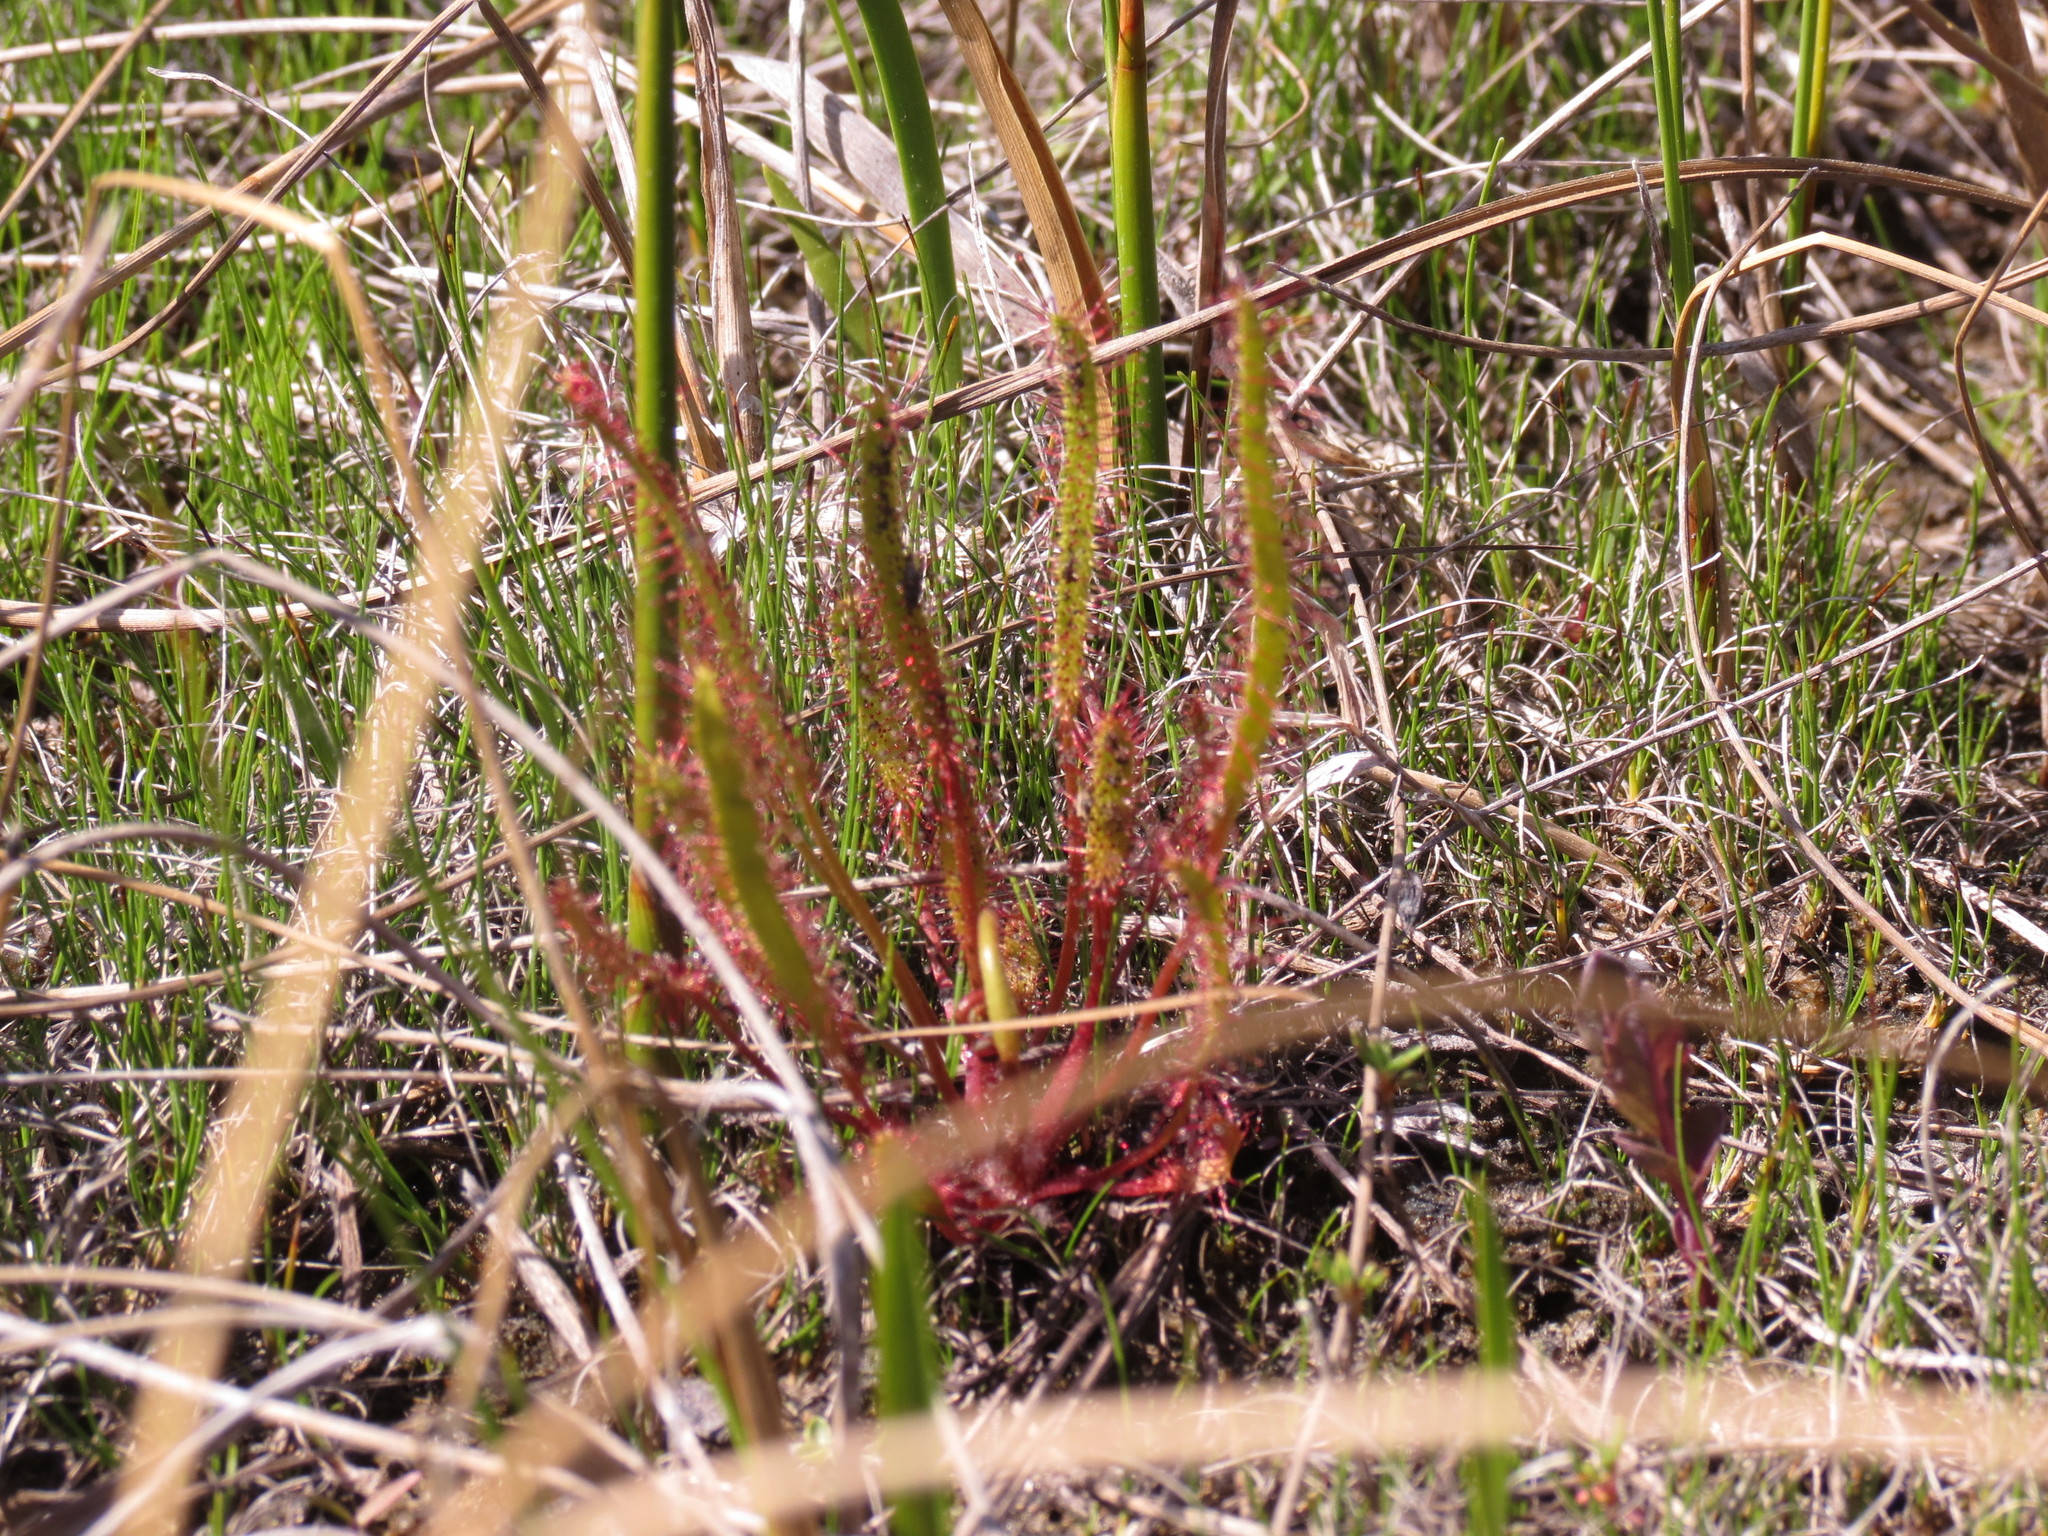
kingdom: Plantae
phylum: Tracheophyta
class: Magnoliopsida
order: Caryophyllales
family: Droseraceae
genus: Drosera
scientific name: Drosera linearis
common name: Linear-leaved sundew
